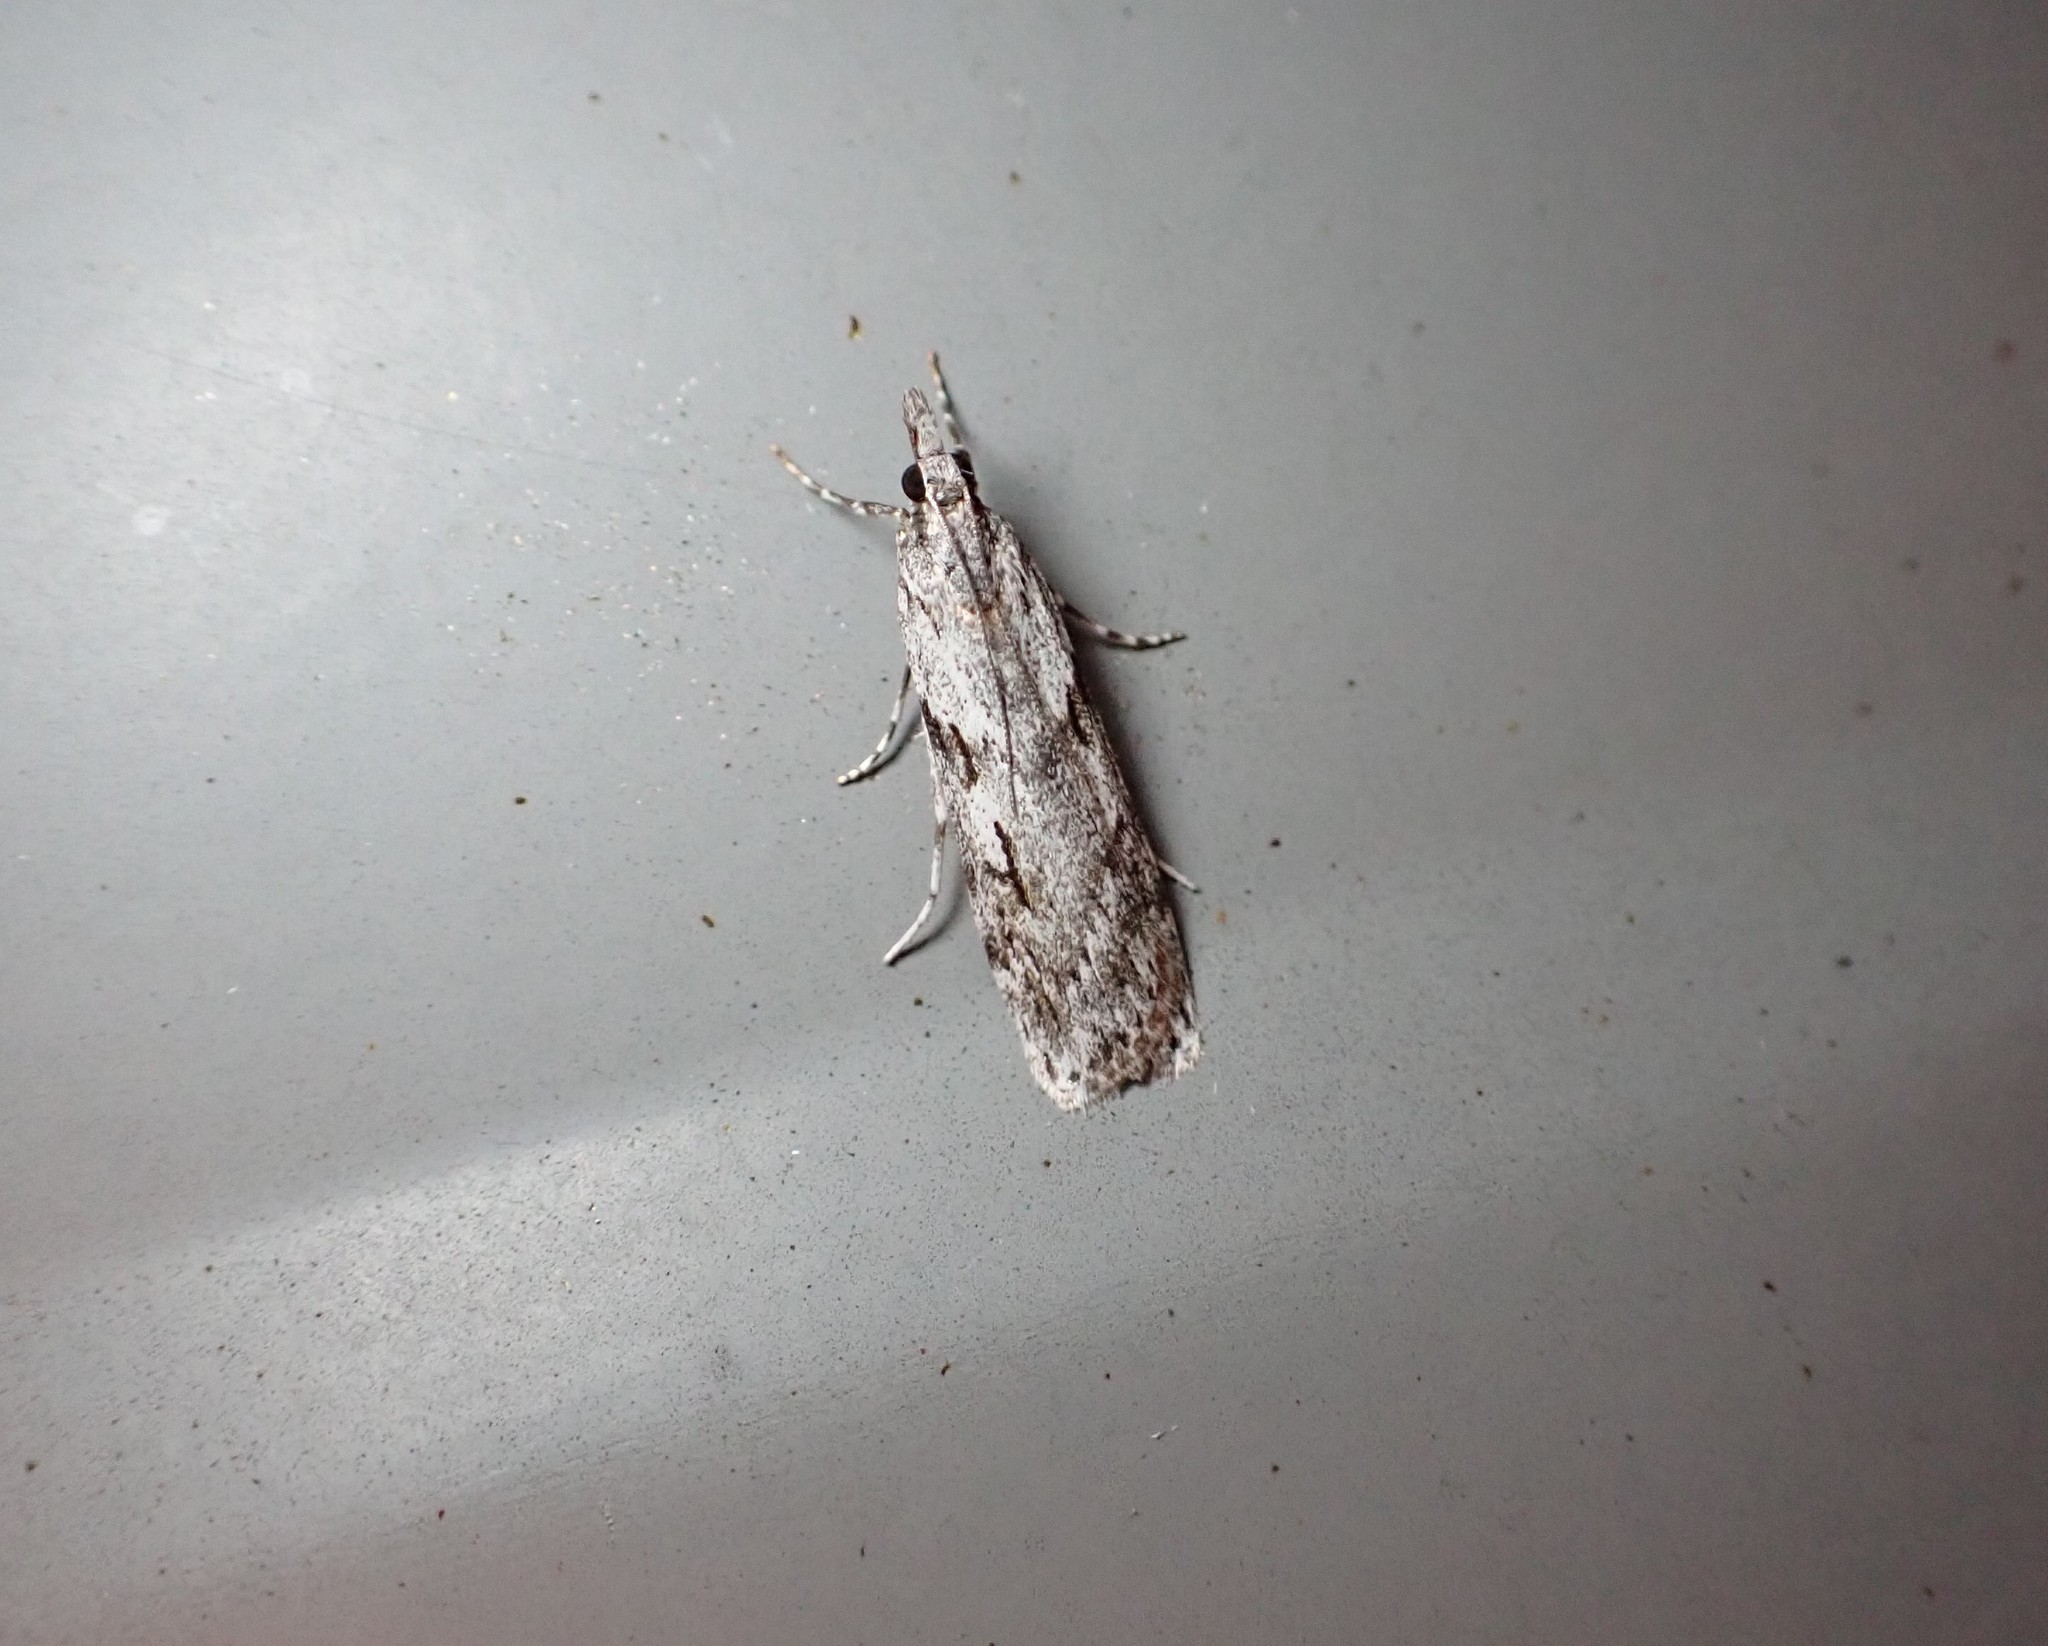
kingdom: Animalia
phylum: Arthropoda
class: Insecta
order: Lepidoptera
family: Crambidae
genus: Scoparia
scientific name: Scoparia halopis
